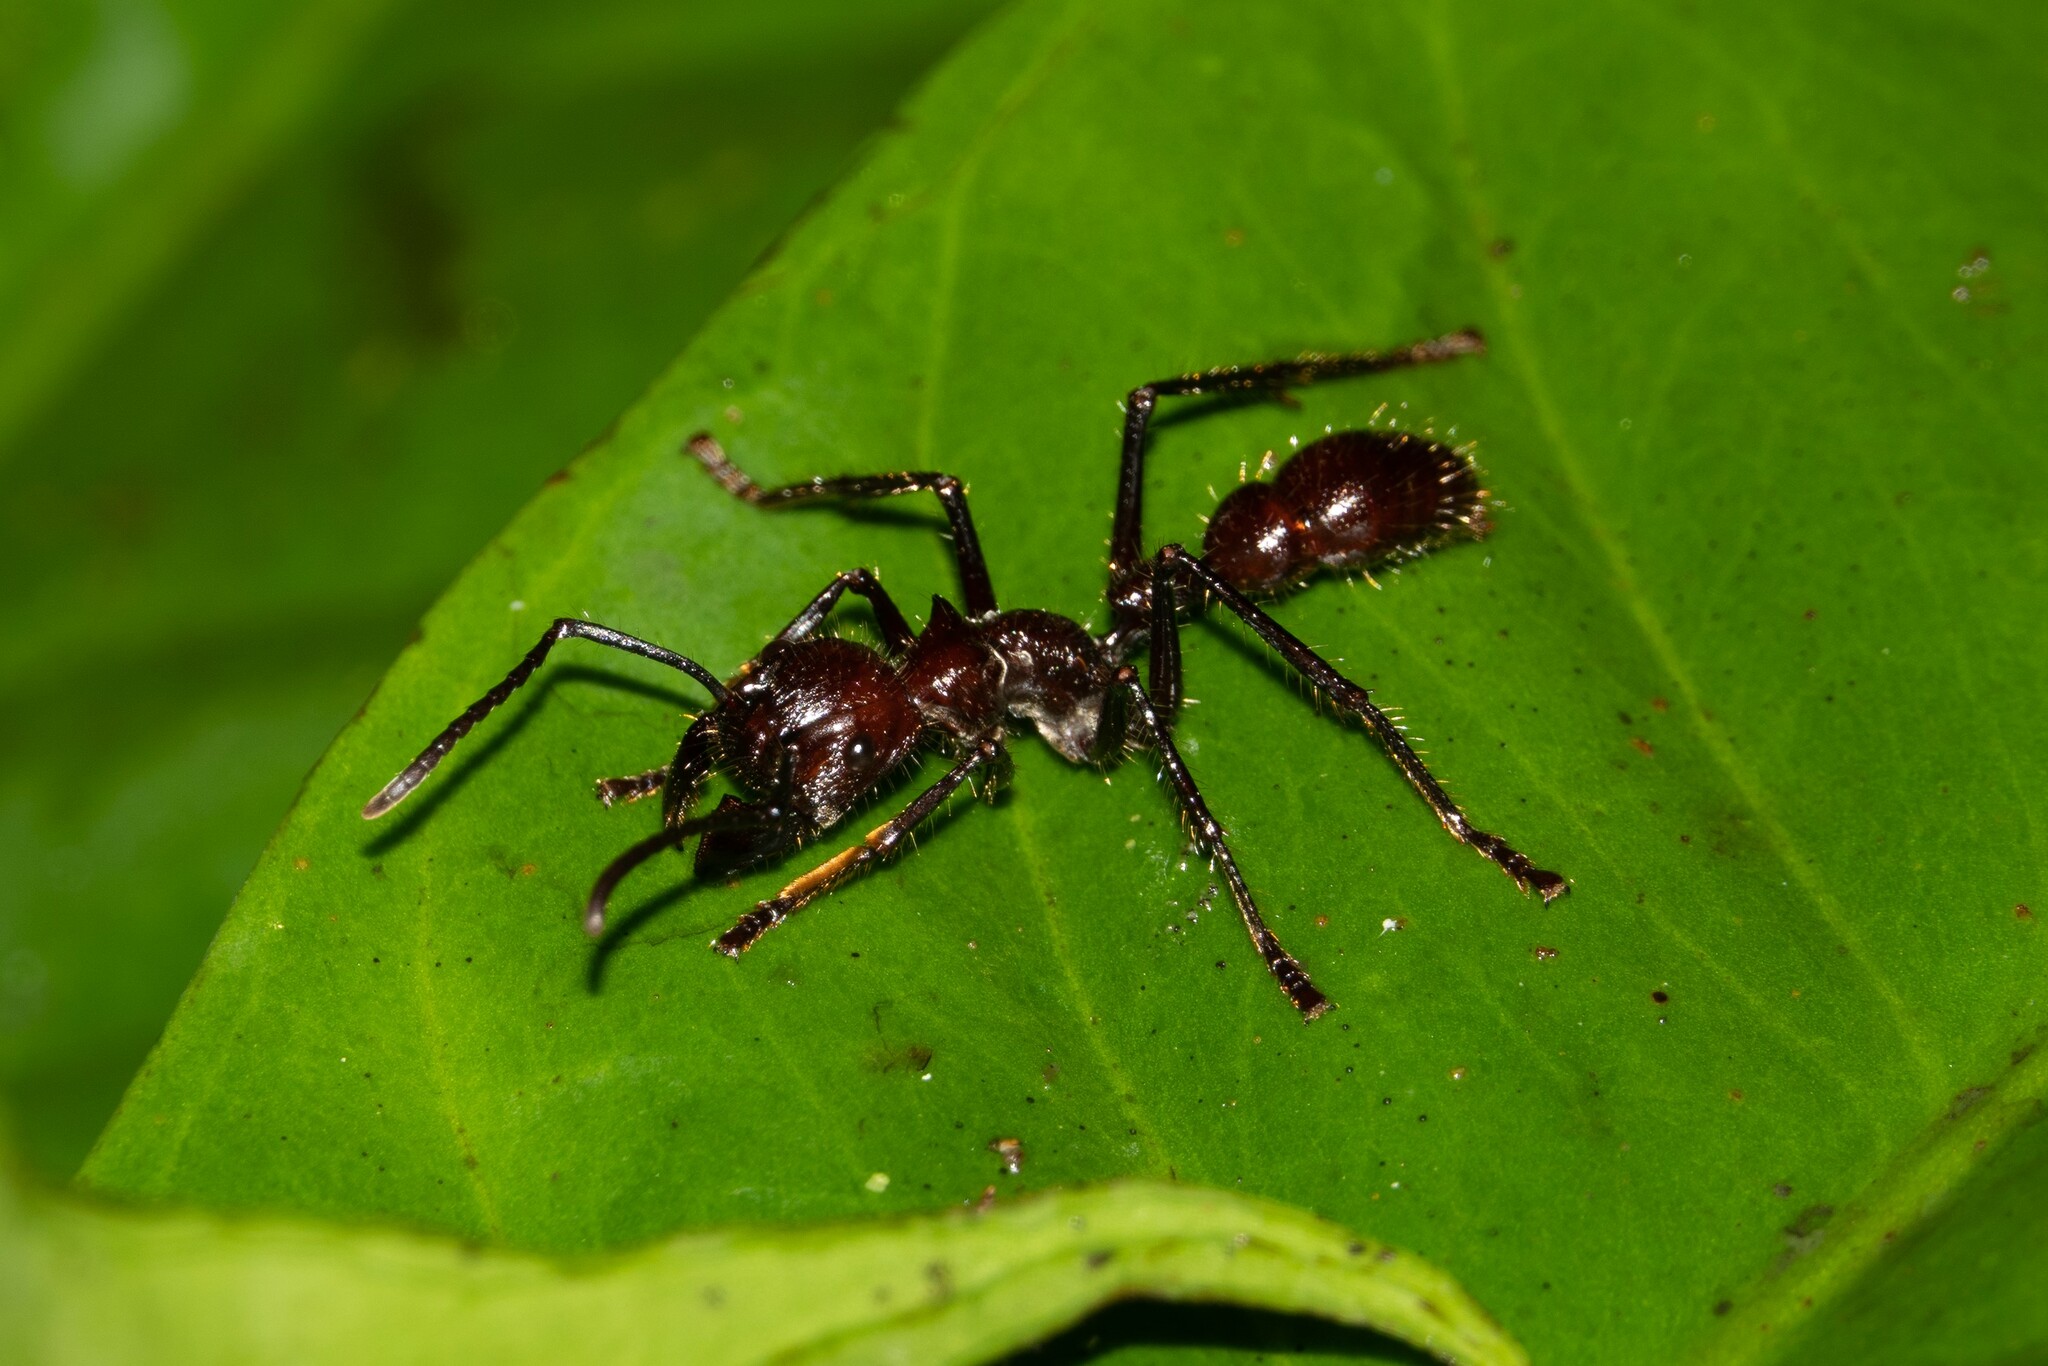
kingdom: Animalia
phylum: Arthropoda
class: Insecta
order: Hymenoptera
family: Formicidae
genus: Paraponera
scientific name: Paraponera clavata
